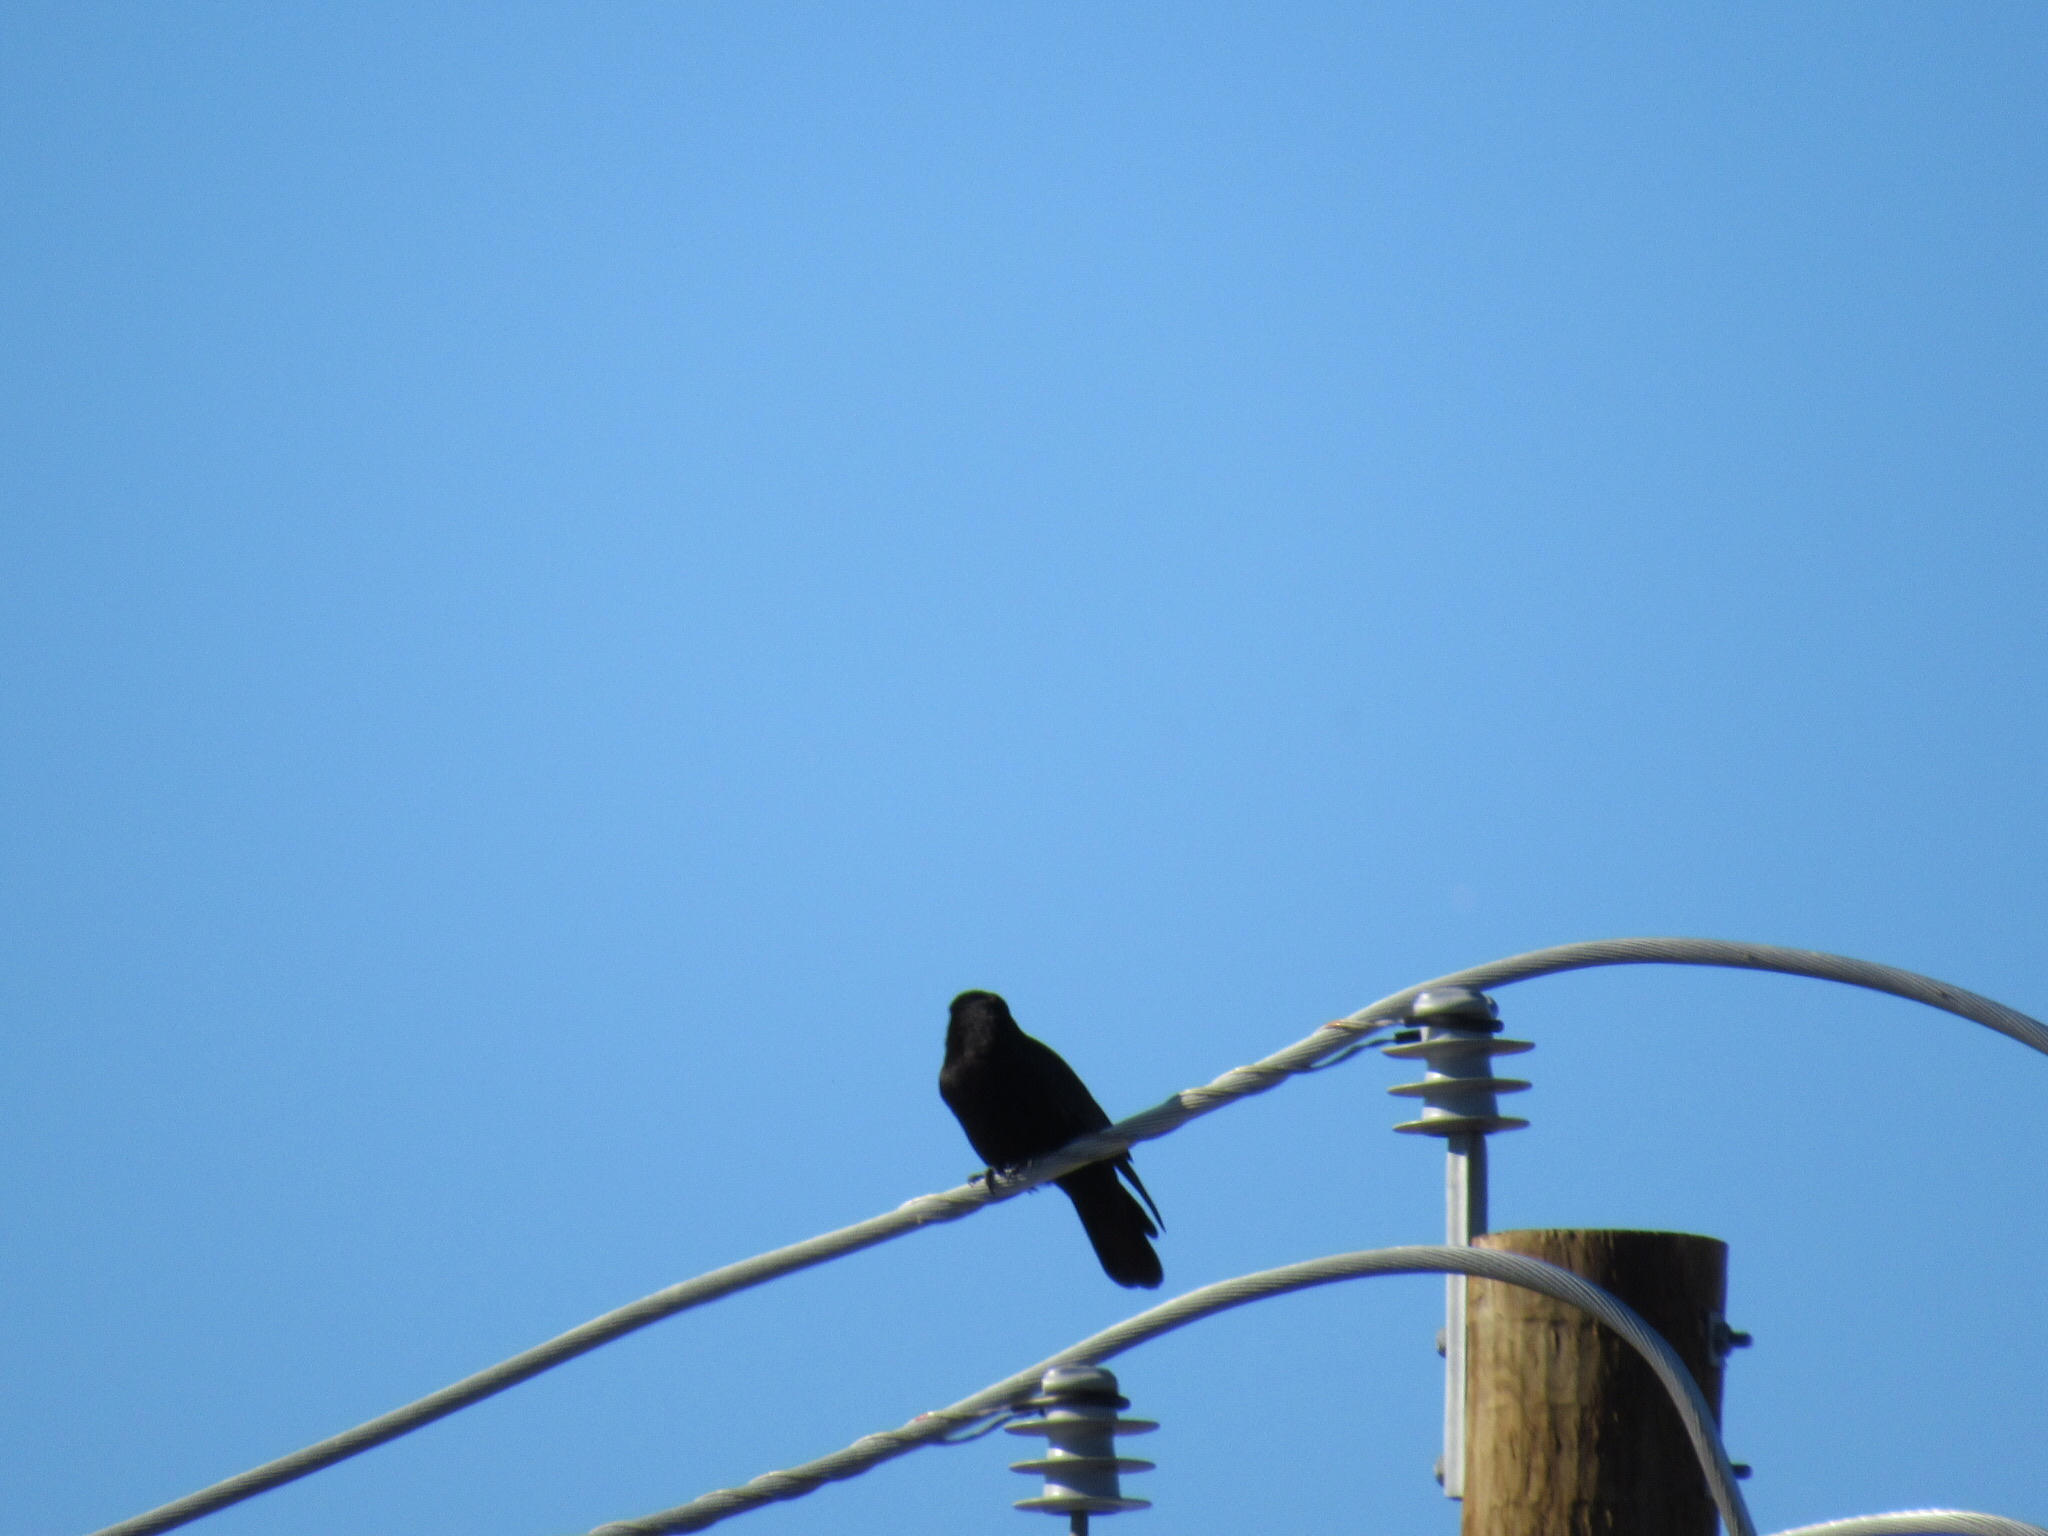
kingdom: Animalia
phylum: Chordata
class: Aves
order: Passeriformes
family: Icteridae
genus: Quiscalus
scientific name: Quiscalus mexicanus
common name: Great-tailed grackle
